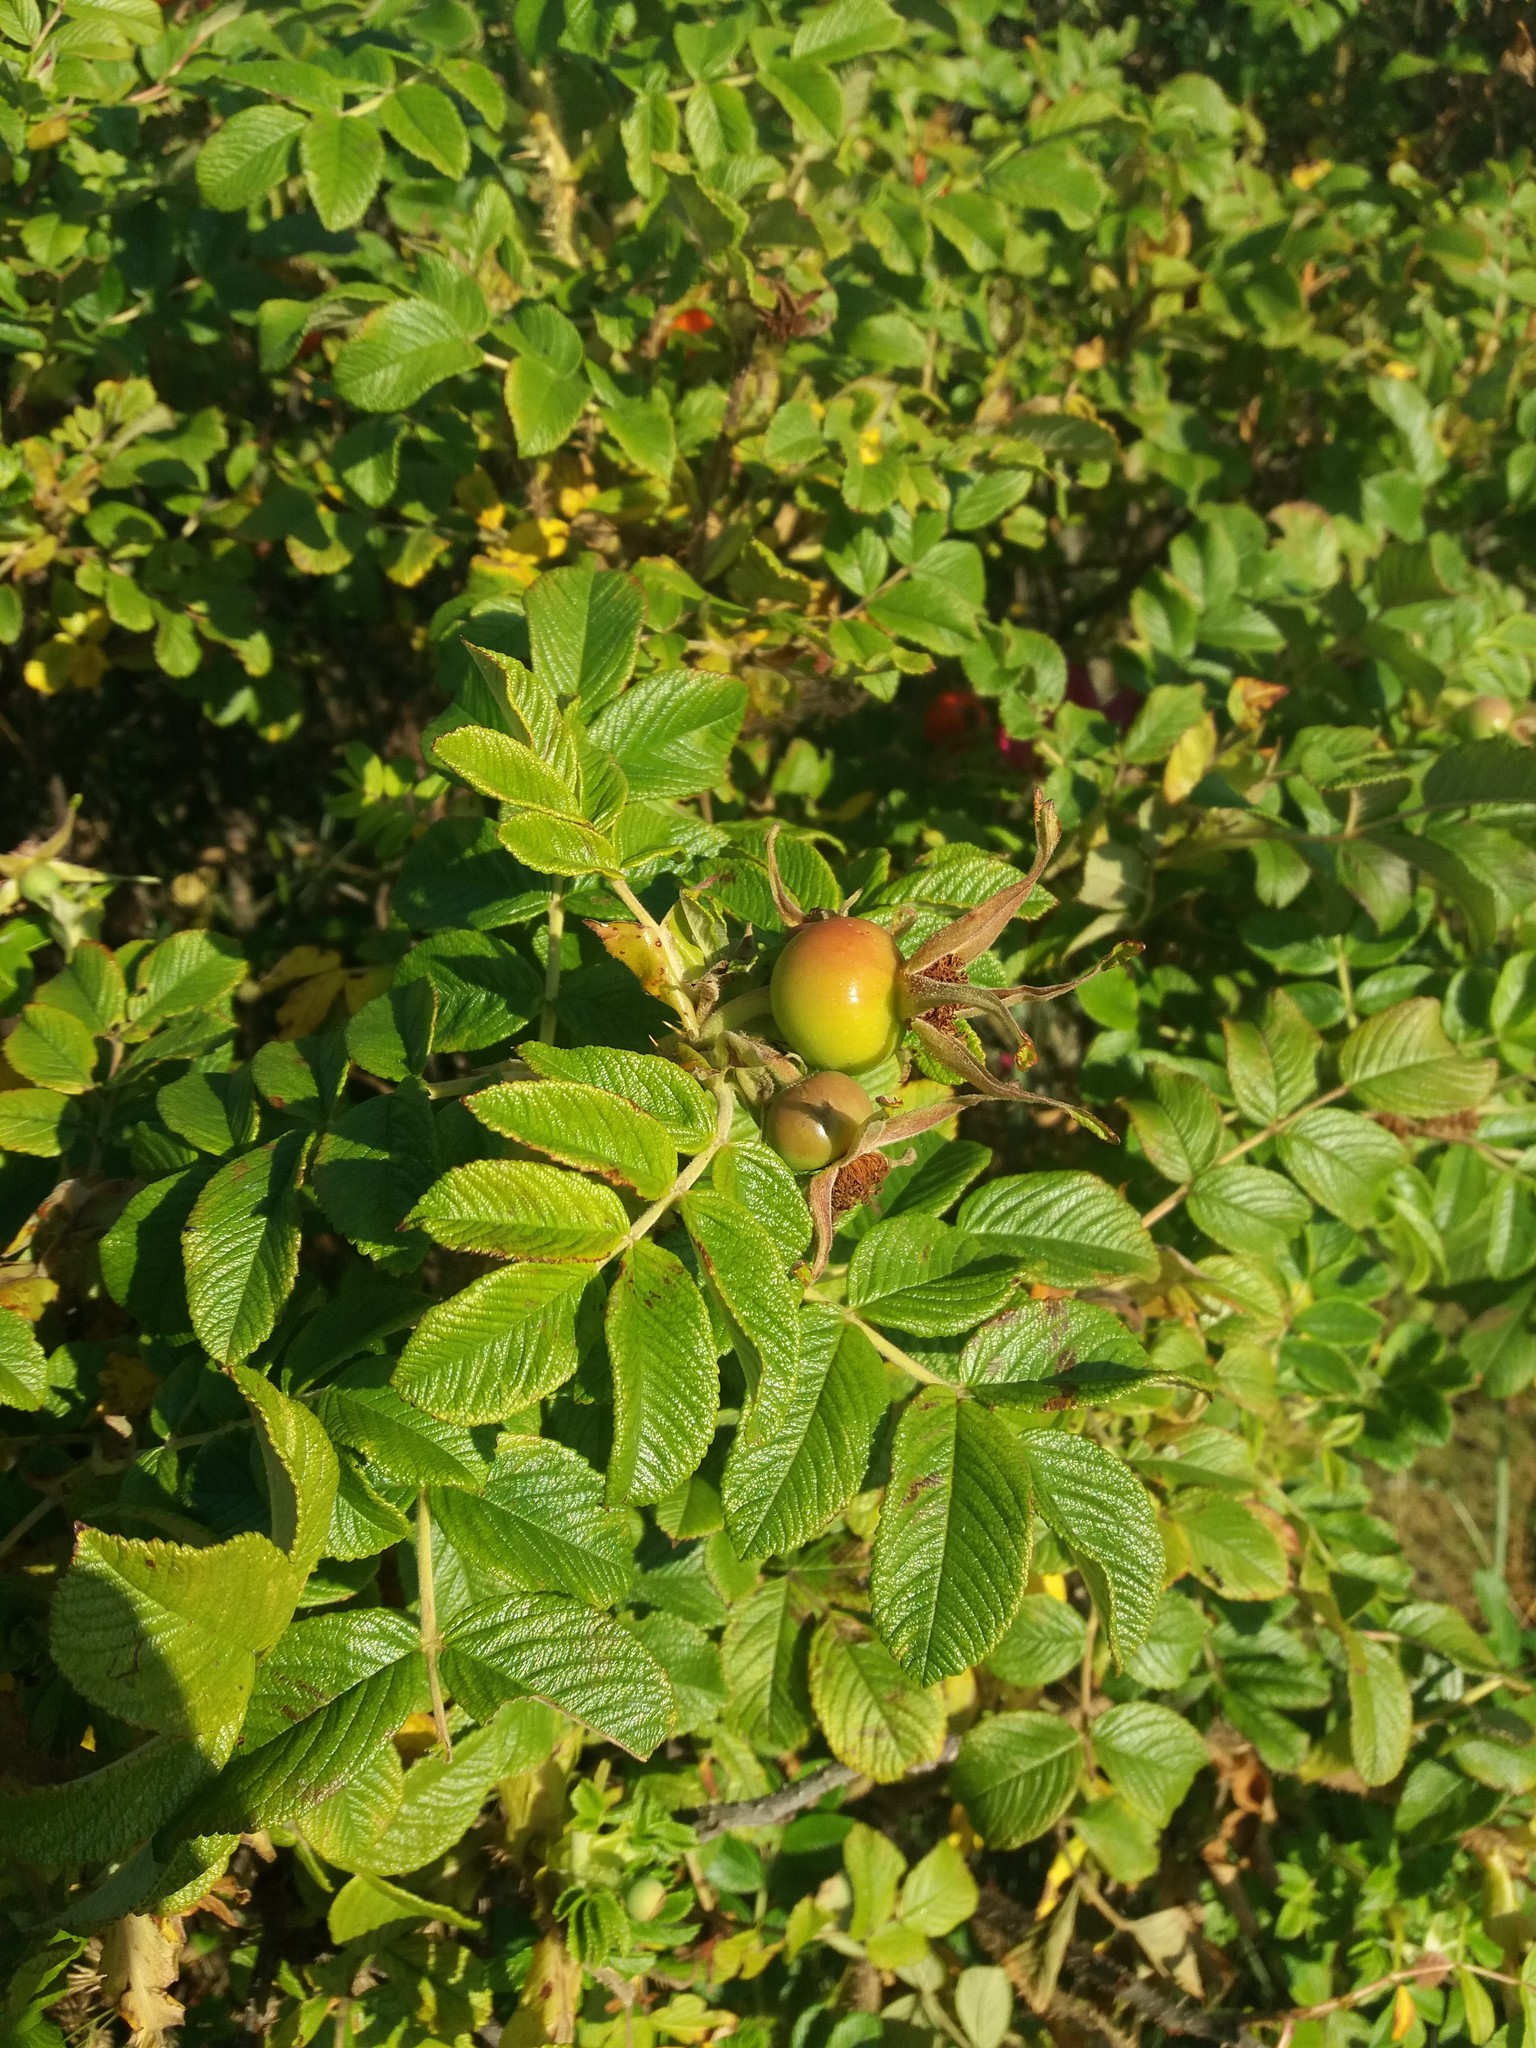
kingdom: Plantae
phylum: Tracheophyta
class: Magnoliopsida
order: Rosales
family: Rosaceae
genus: Rosa
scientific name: Rosa rugosa
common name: Japanese rose
